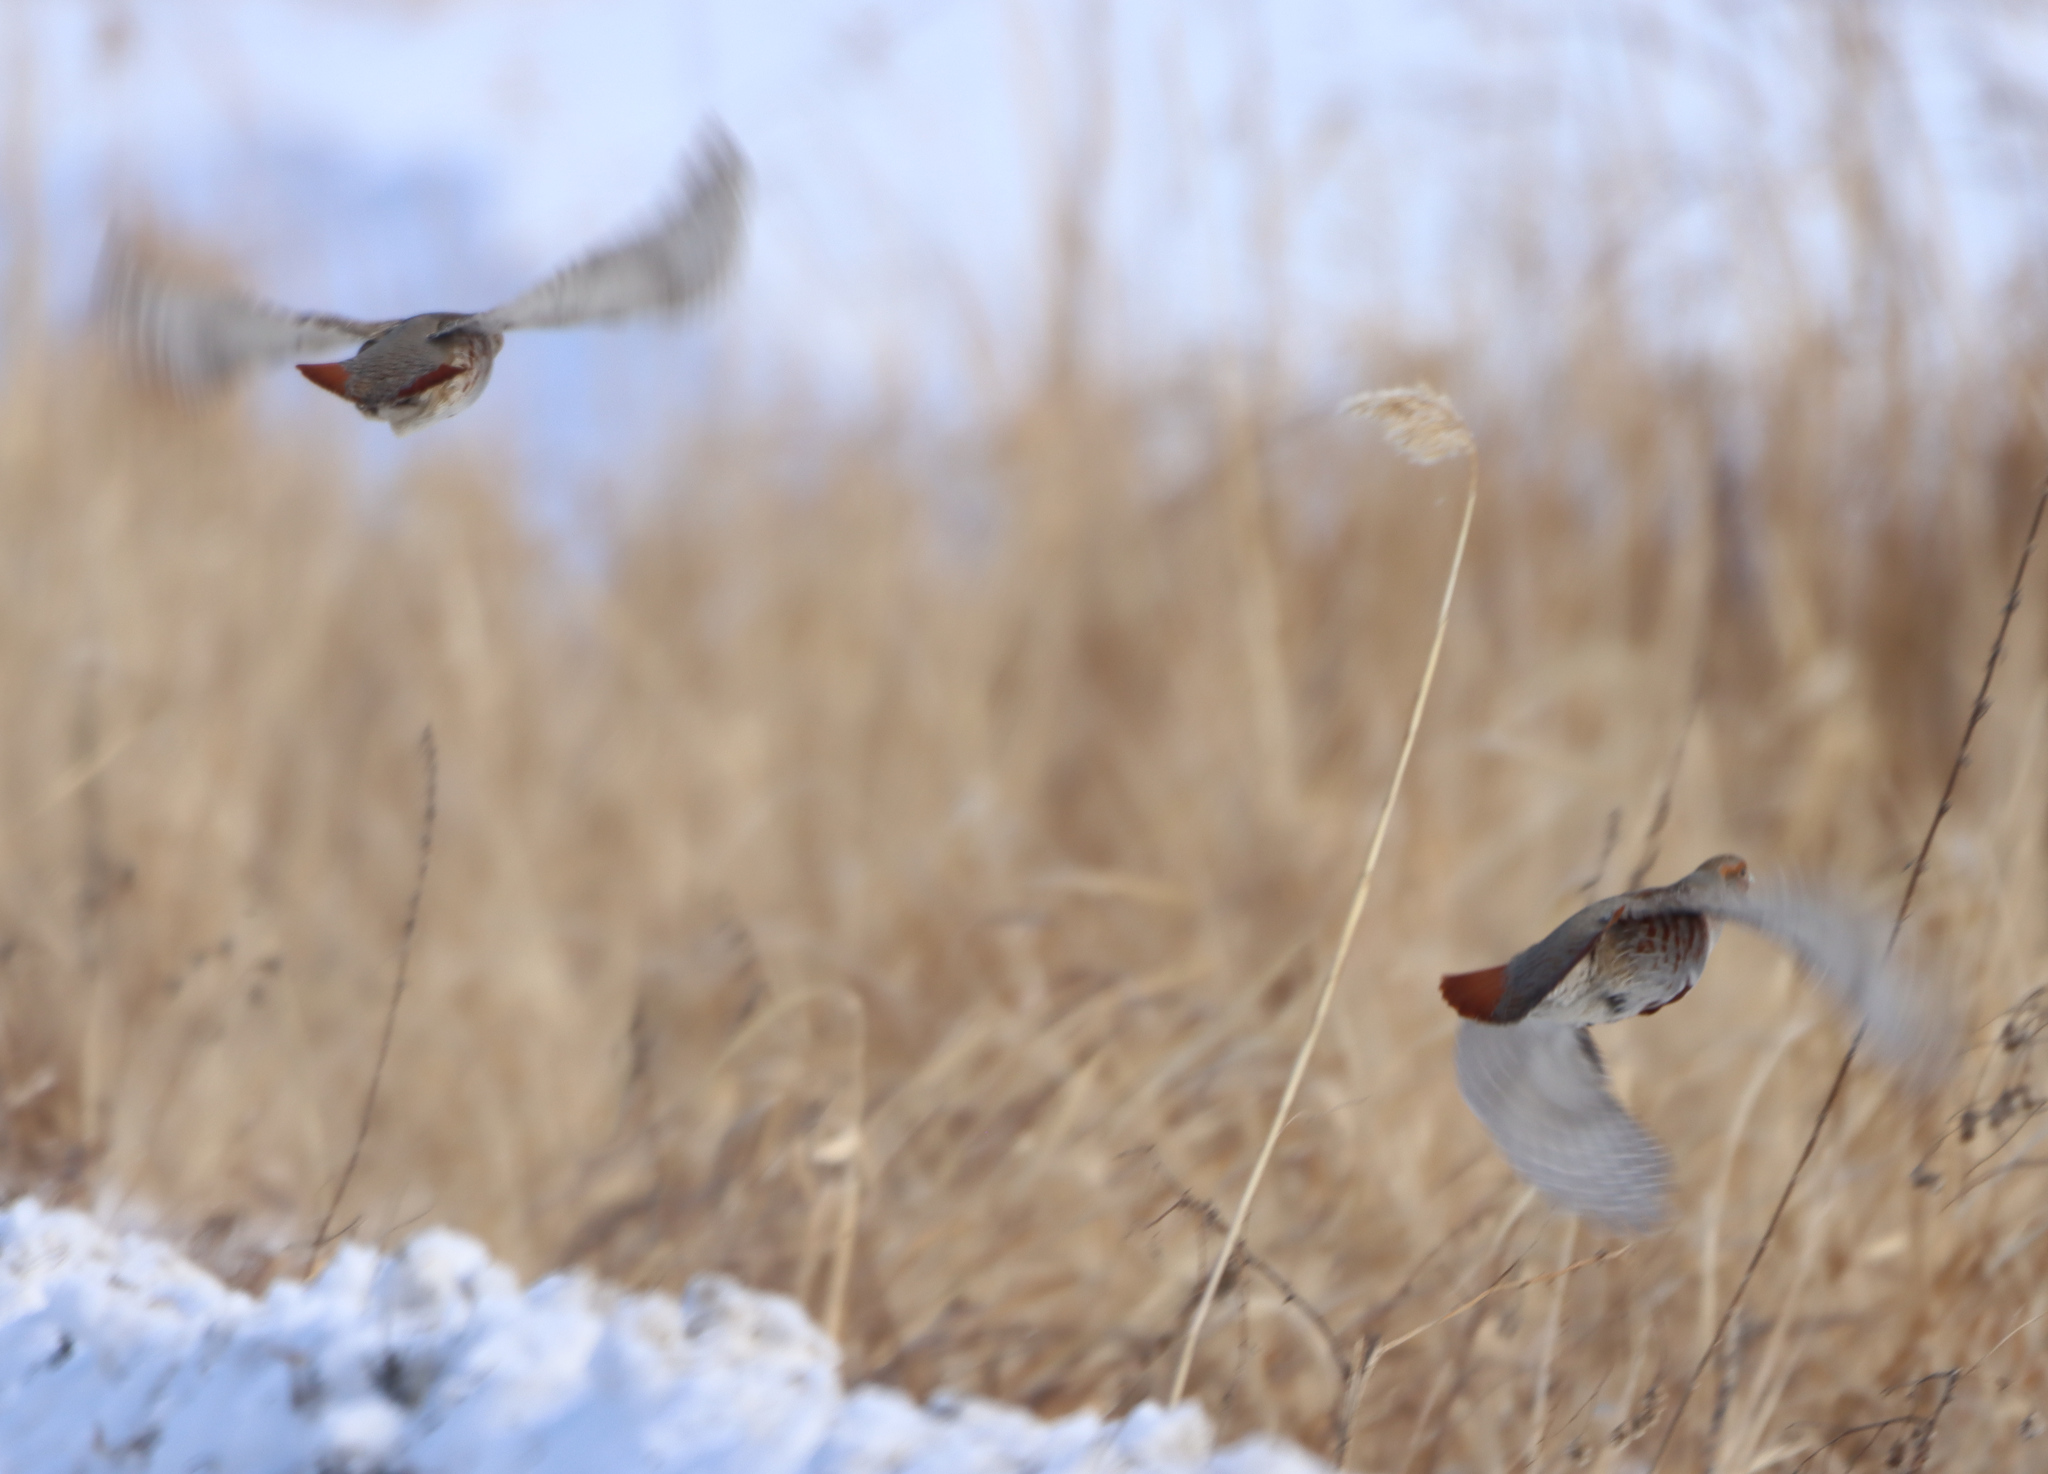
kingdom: Animalia
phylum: Chordata
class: Aves
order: Galliformes
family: Phasianidae
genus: Perdix
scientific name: Perdix perdix
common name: Grey partridge
